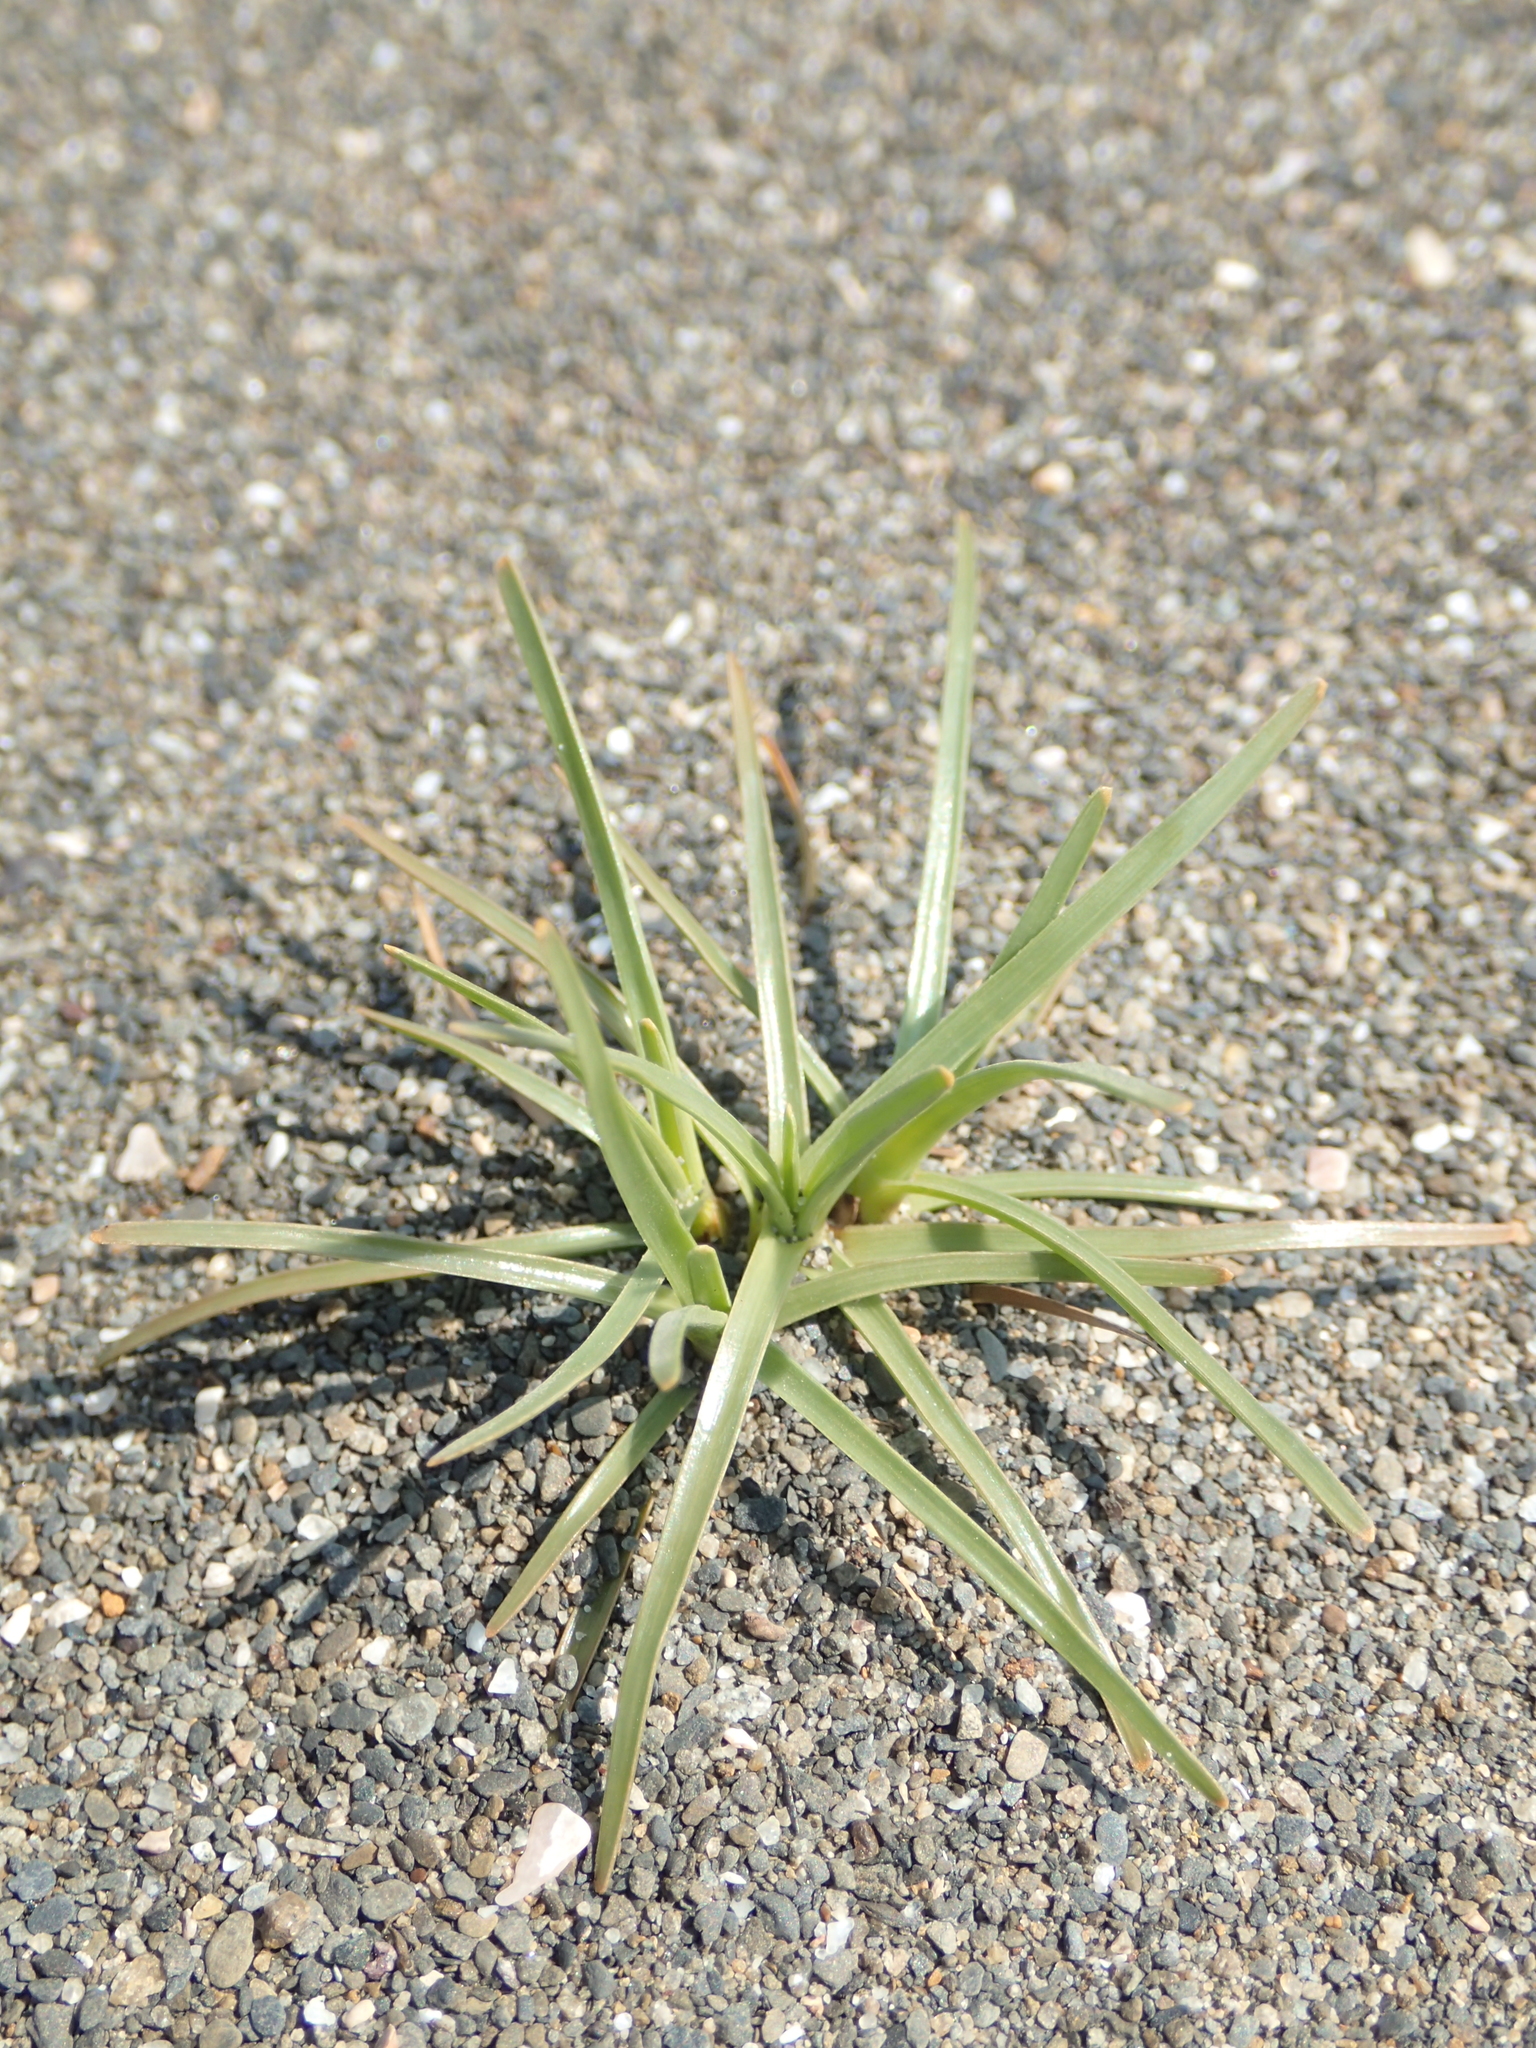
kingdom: Plantae
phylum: Tracheophyta
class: Liliopsida
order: Poales
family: Cyperaceae
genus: Fimbristylis
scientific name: Fimbristylis cymosa
